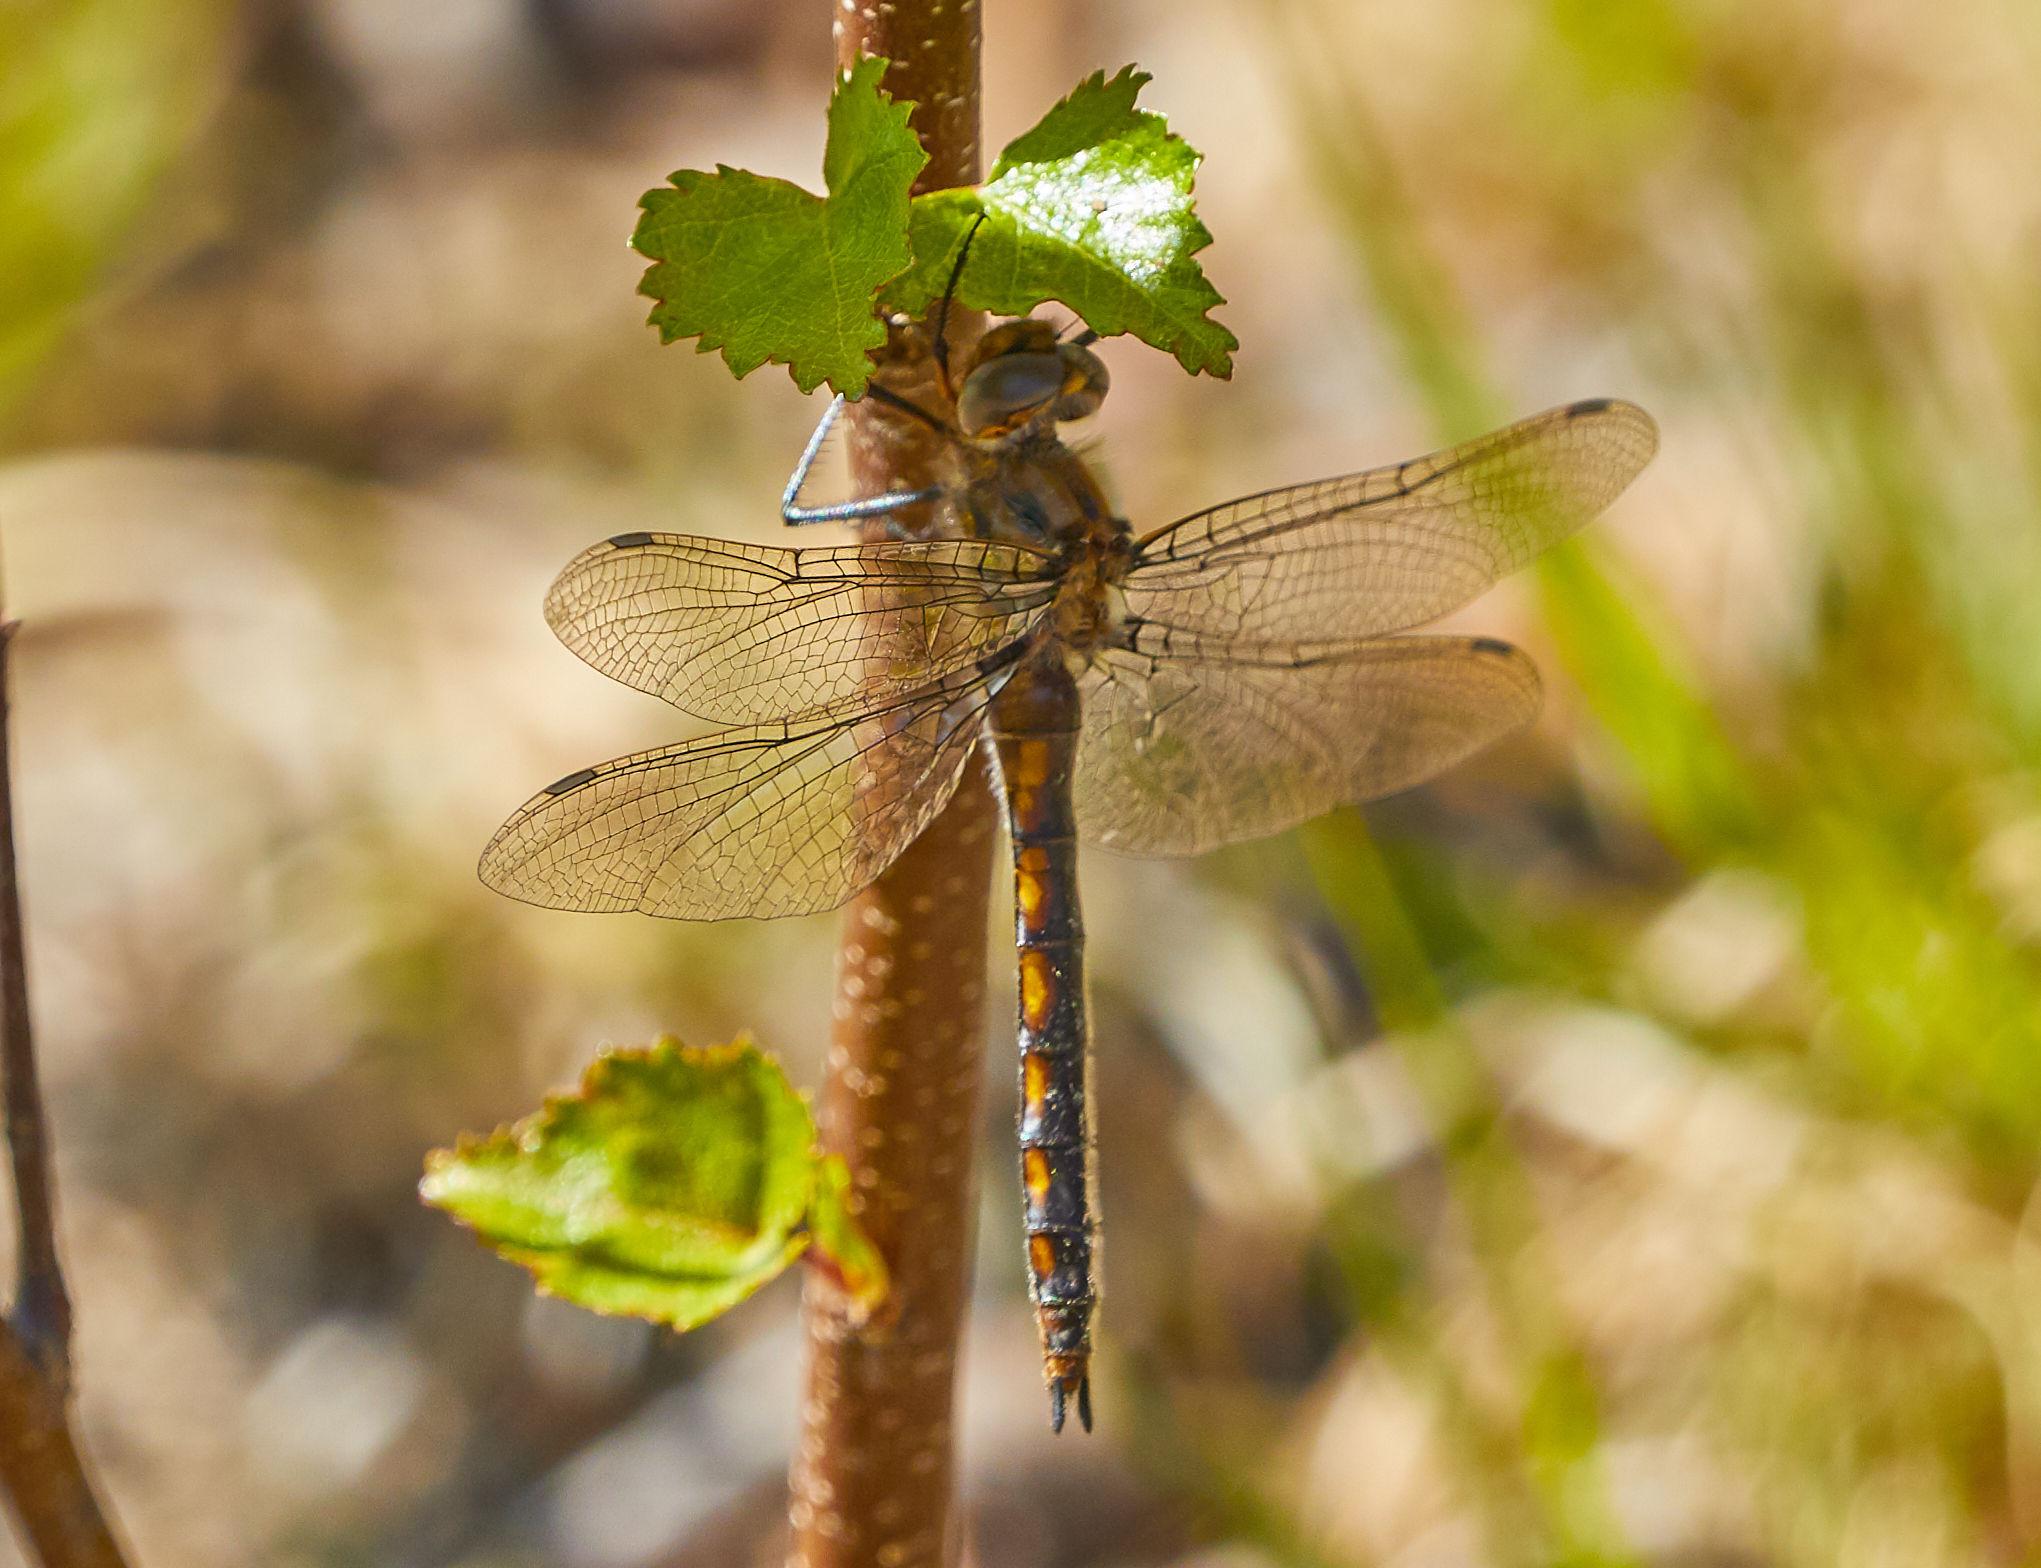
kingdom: Animalia
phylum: Arthropoda
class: Insecta
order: Odonata
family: Corduliidae
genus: Epitheca
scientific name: Epitheca canis
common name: Beaverpond baskettail
